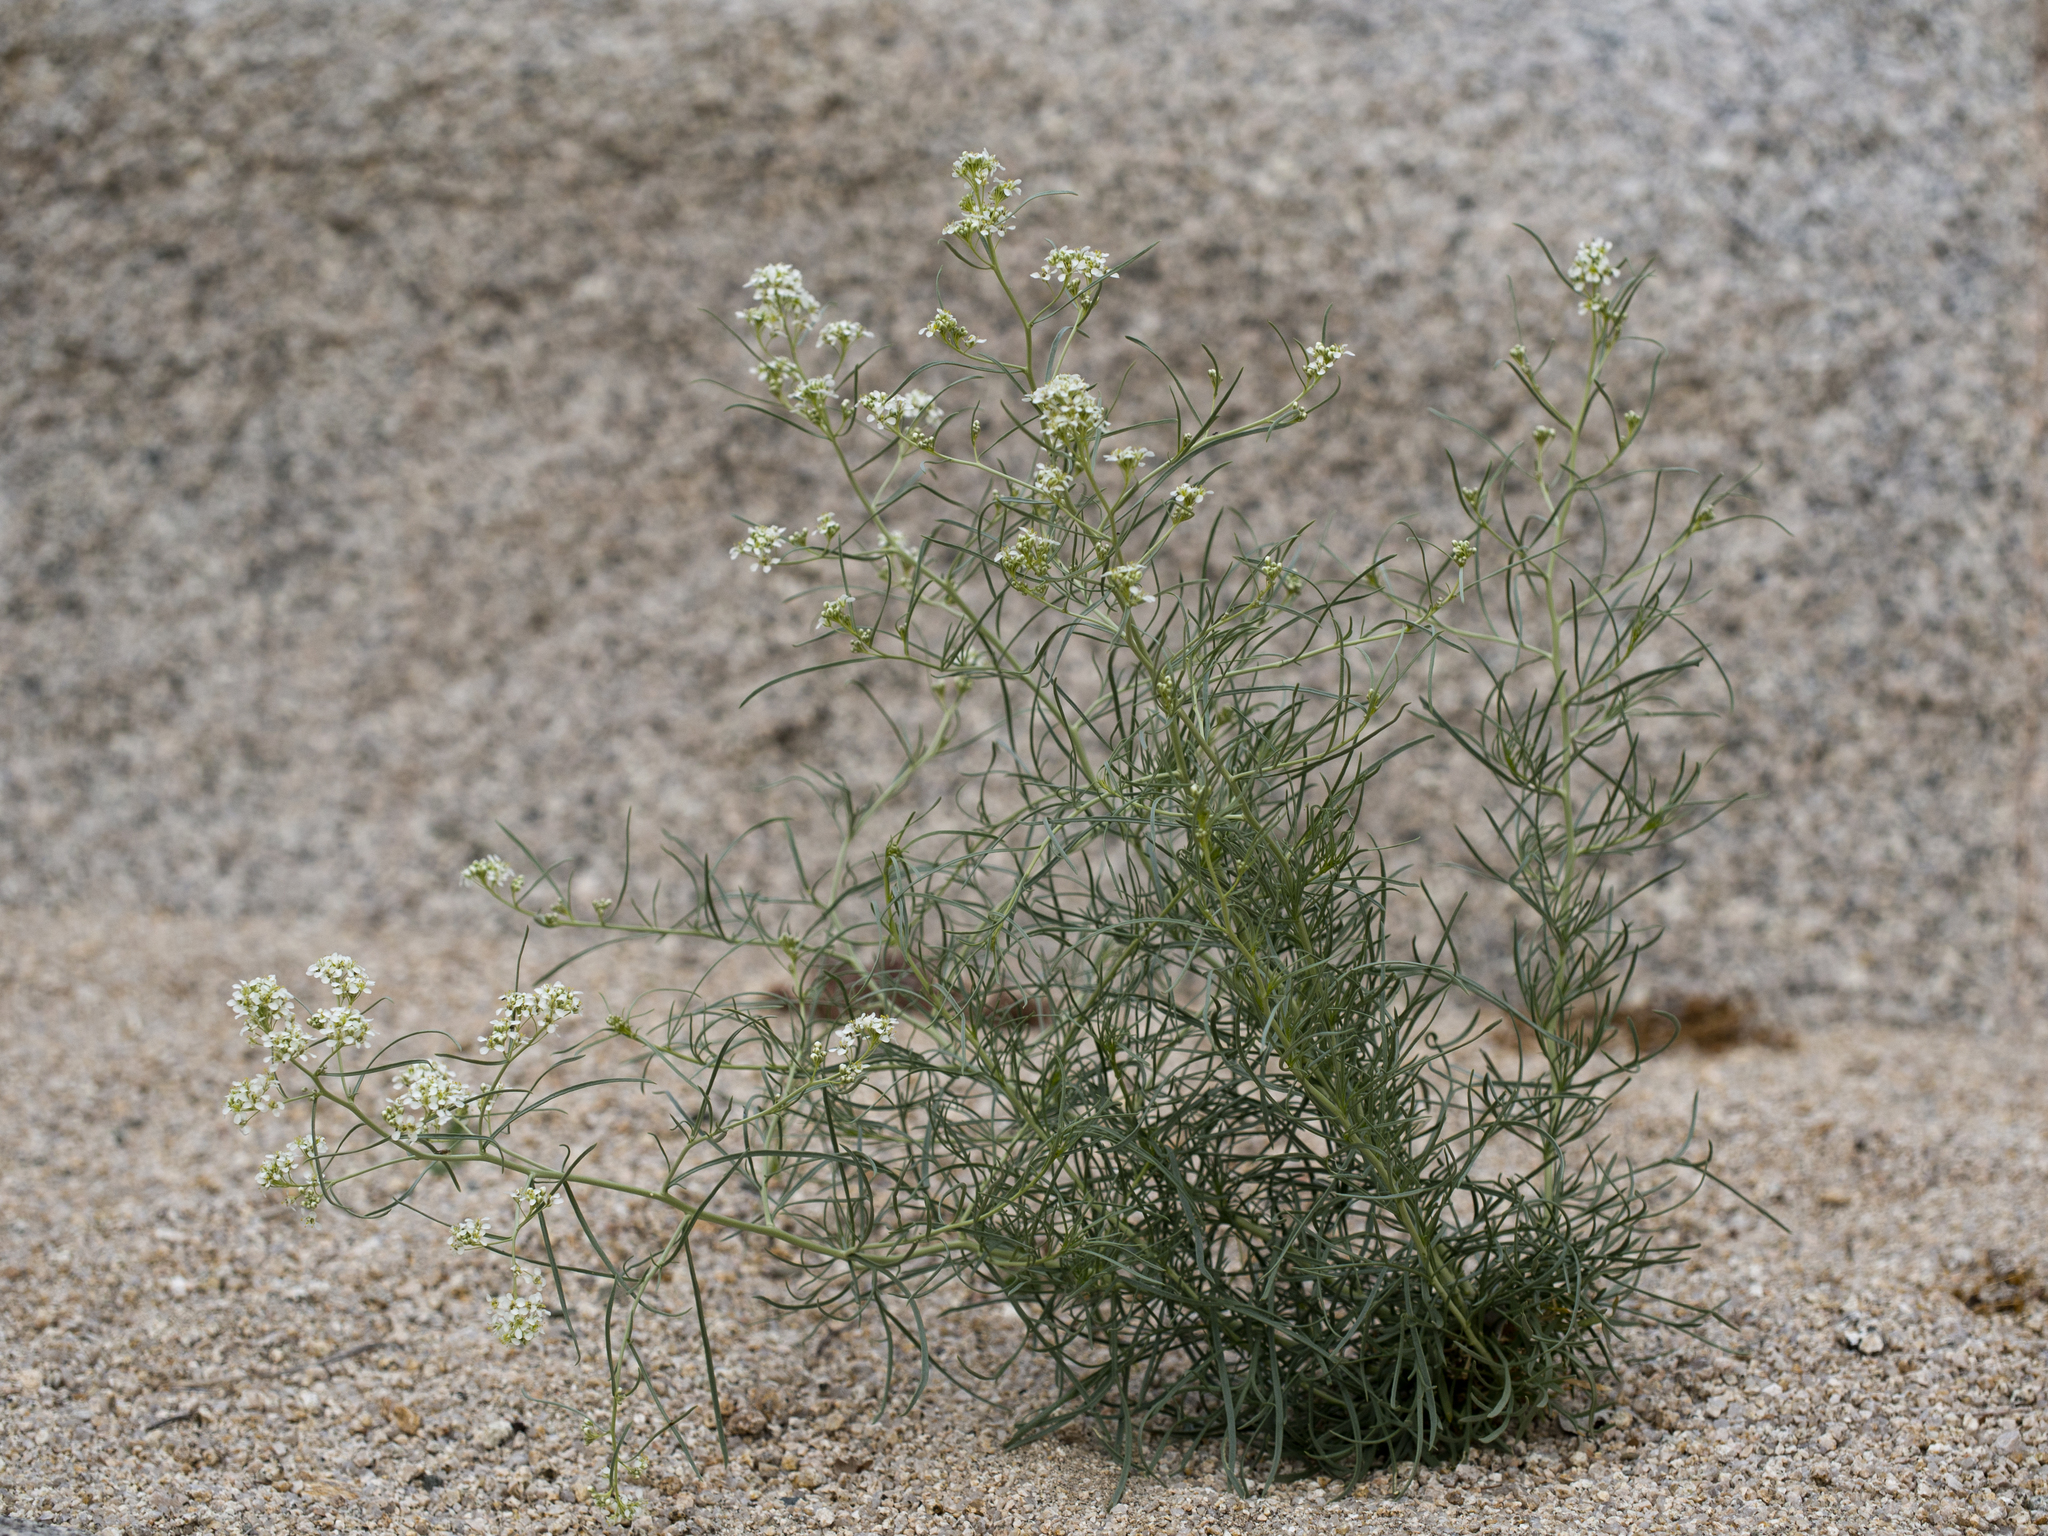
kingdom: Plantae
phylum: Tracheophyta
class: Magnoliopsida
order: Brassicales
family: Brassicaceae
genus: Lepidium
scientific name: Lepidium fremontii
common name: Fremont's pepperwort
